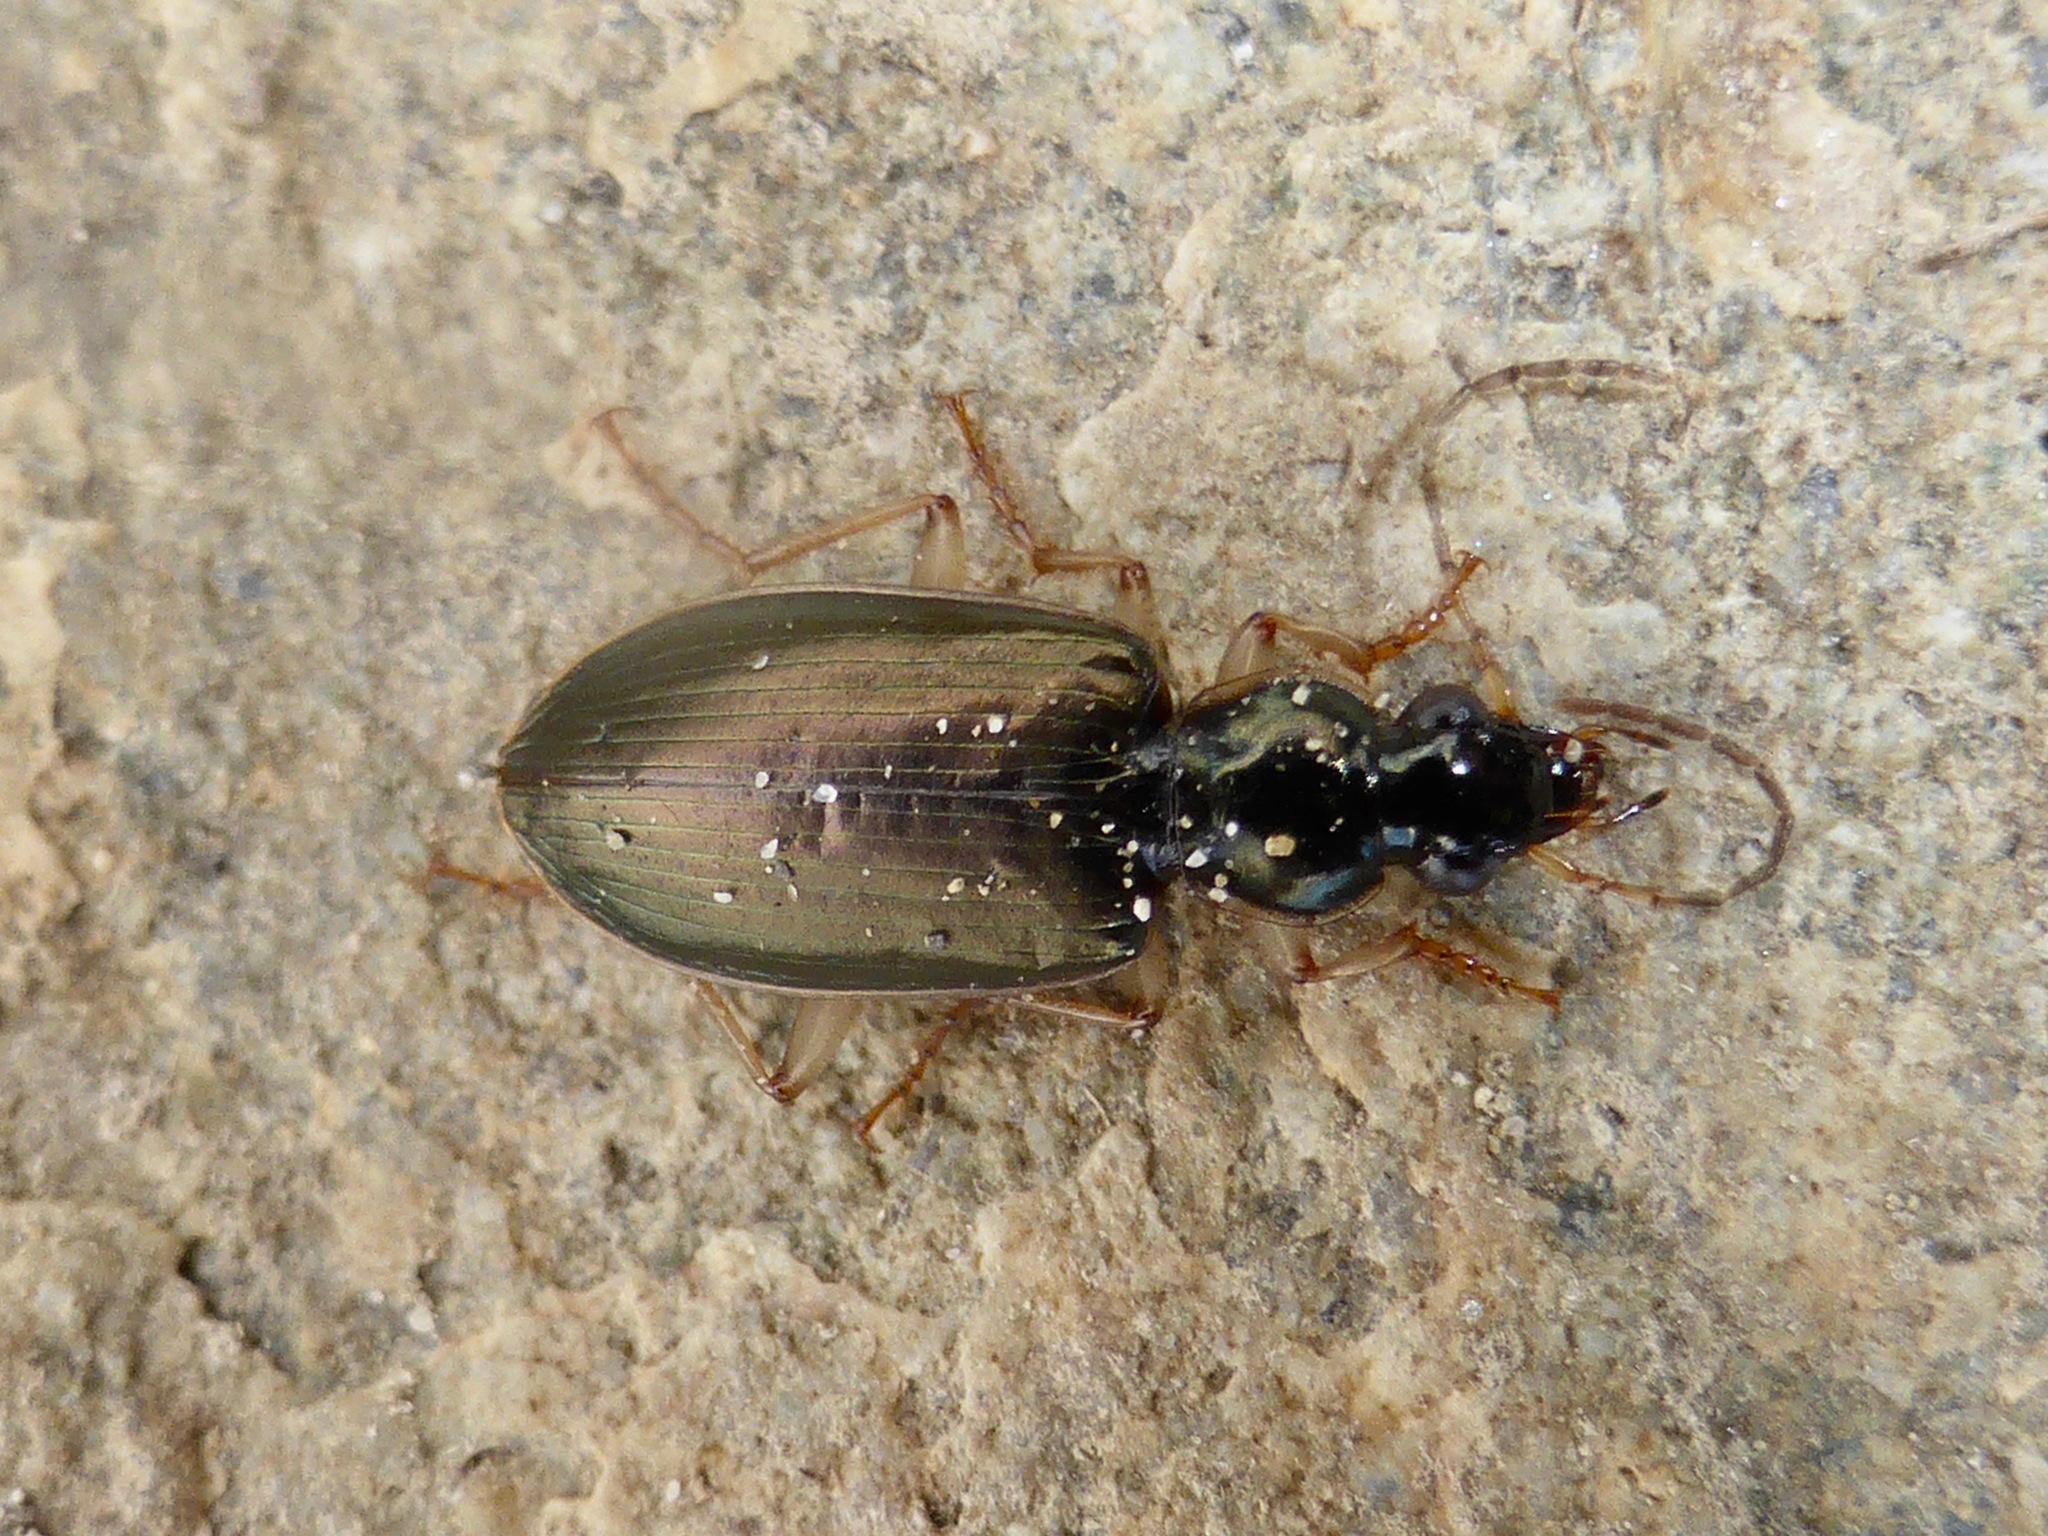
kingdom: Animalia
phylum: Arthropoda
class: Insecta
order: Coleoptera
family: Carabidae
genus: Notagonum
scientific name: Notagonum submetallicum
